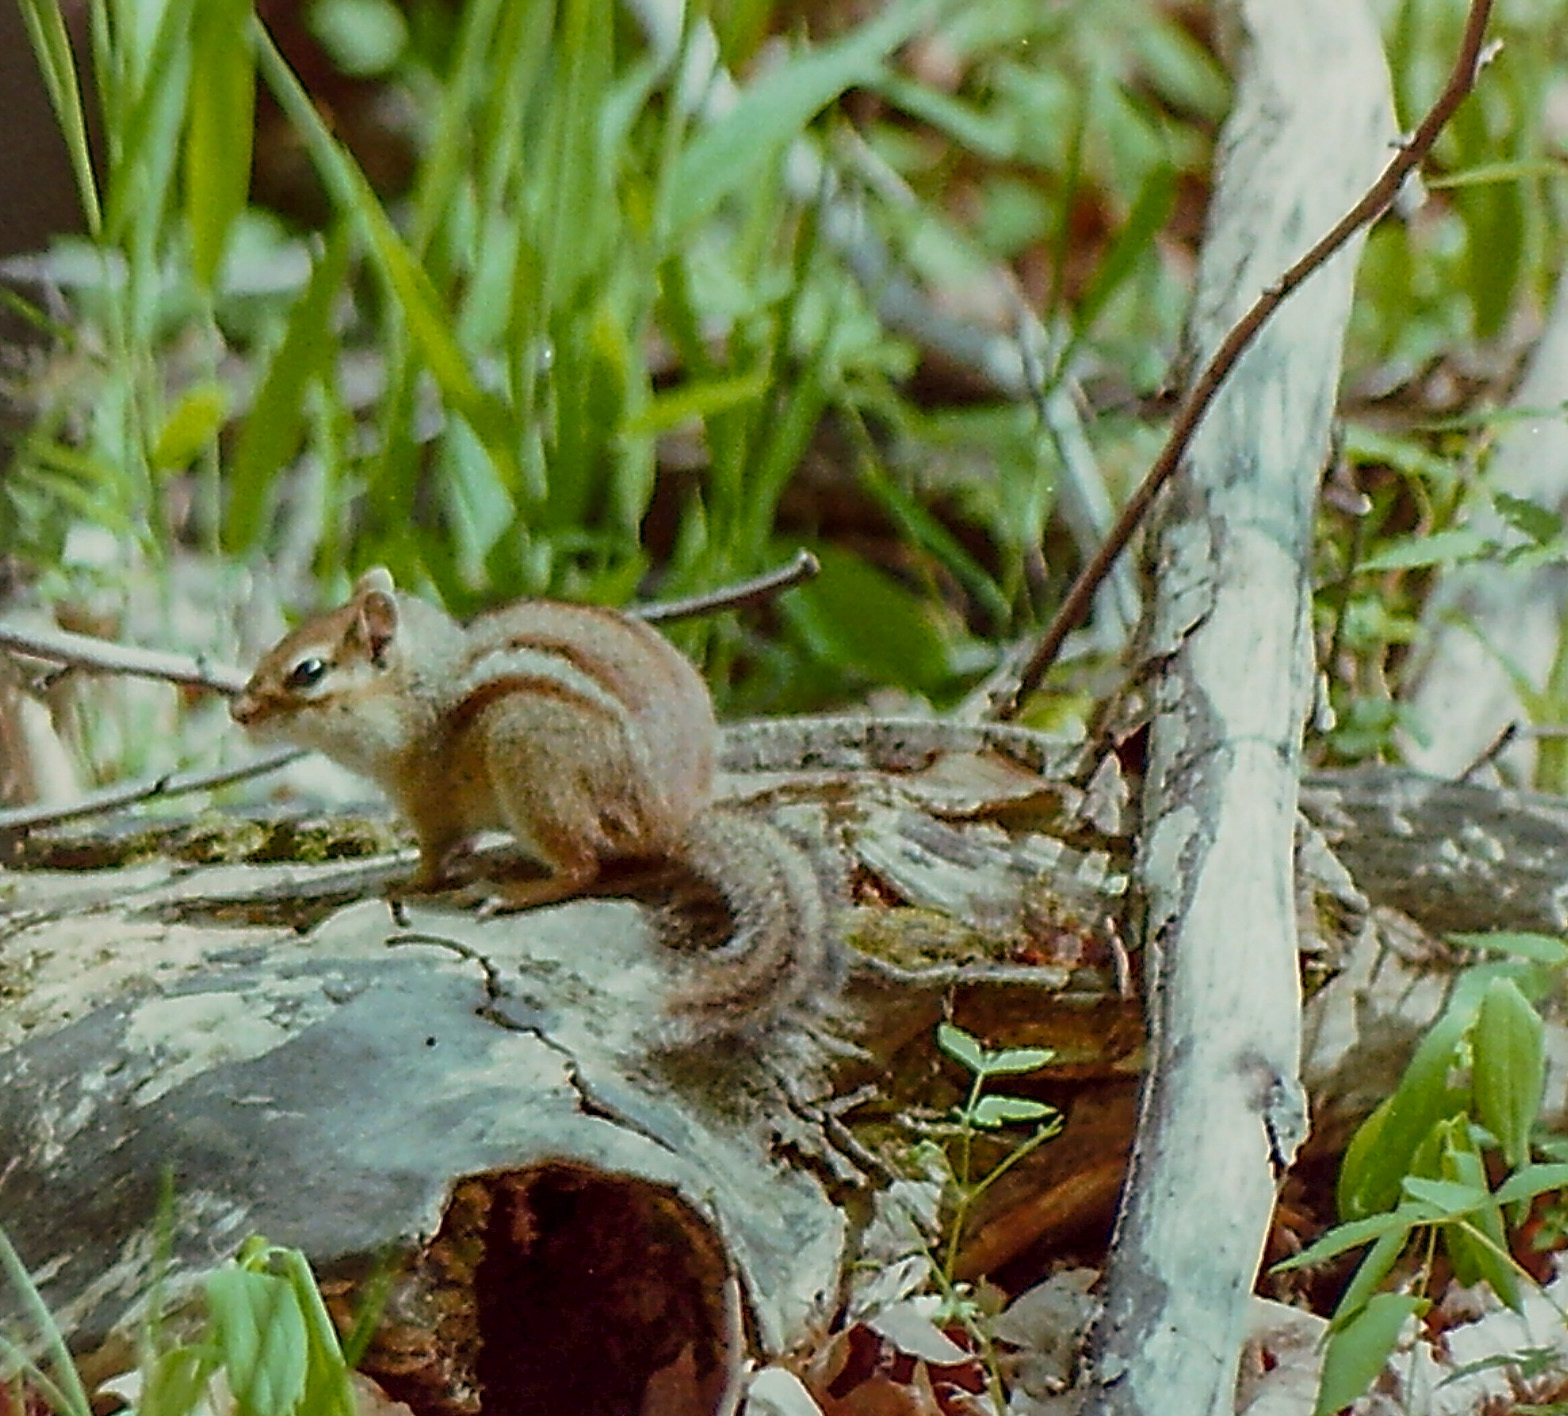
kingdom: Animalia
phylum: Chordata
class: Mammalia
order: Rodentia
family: Sciuridae
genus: Tamias
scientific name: Tamias striatus
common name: Eastern chipmunk
